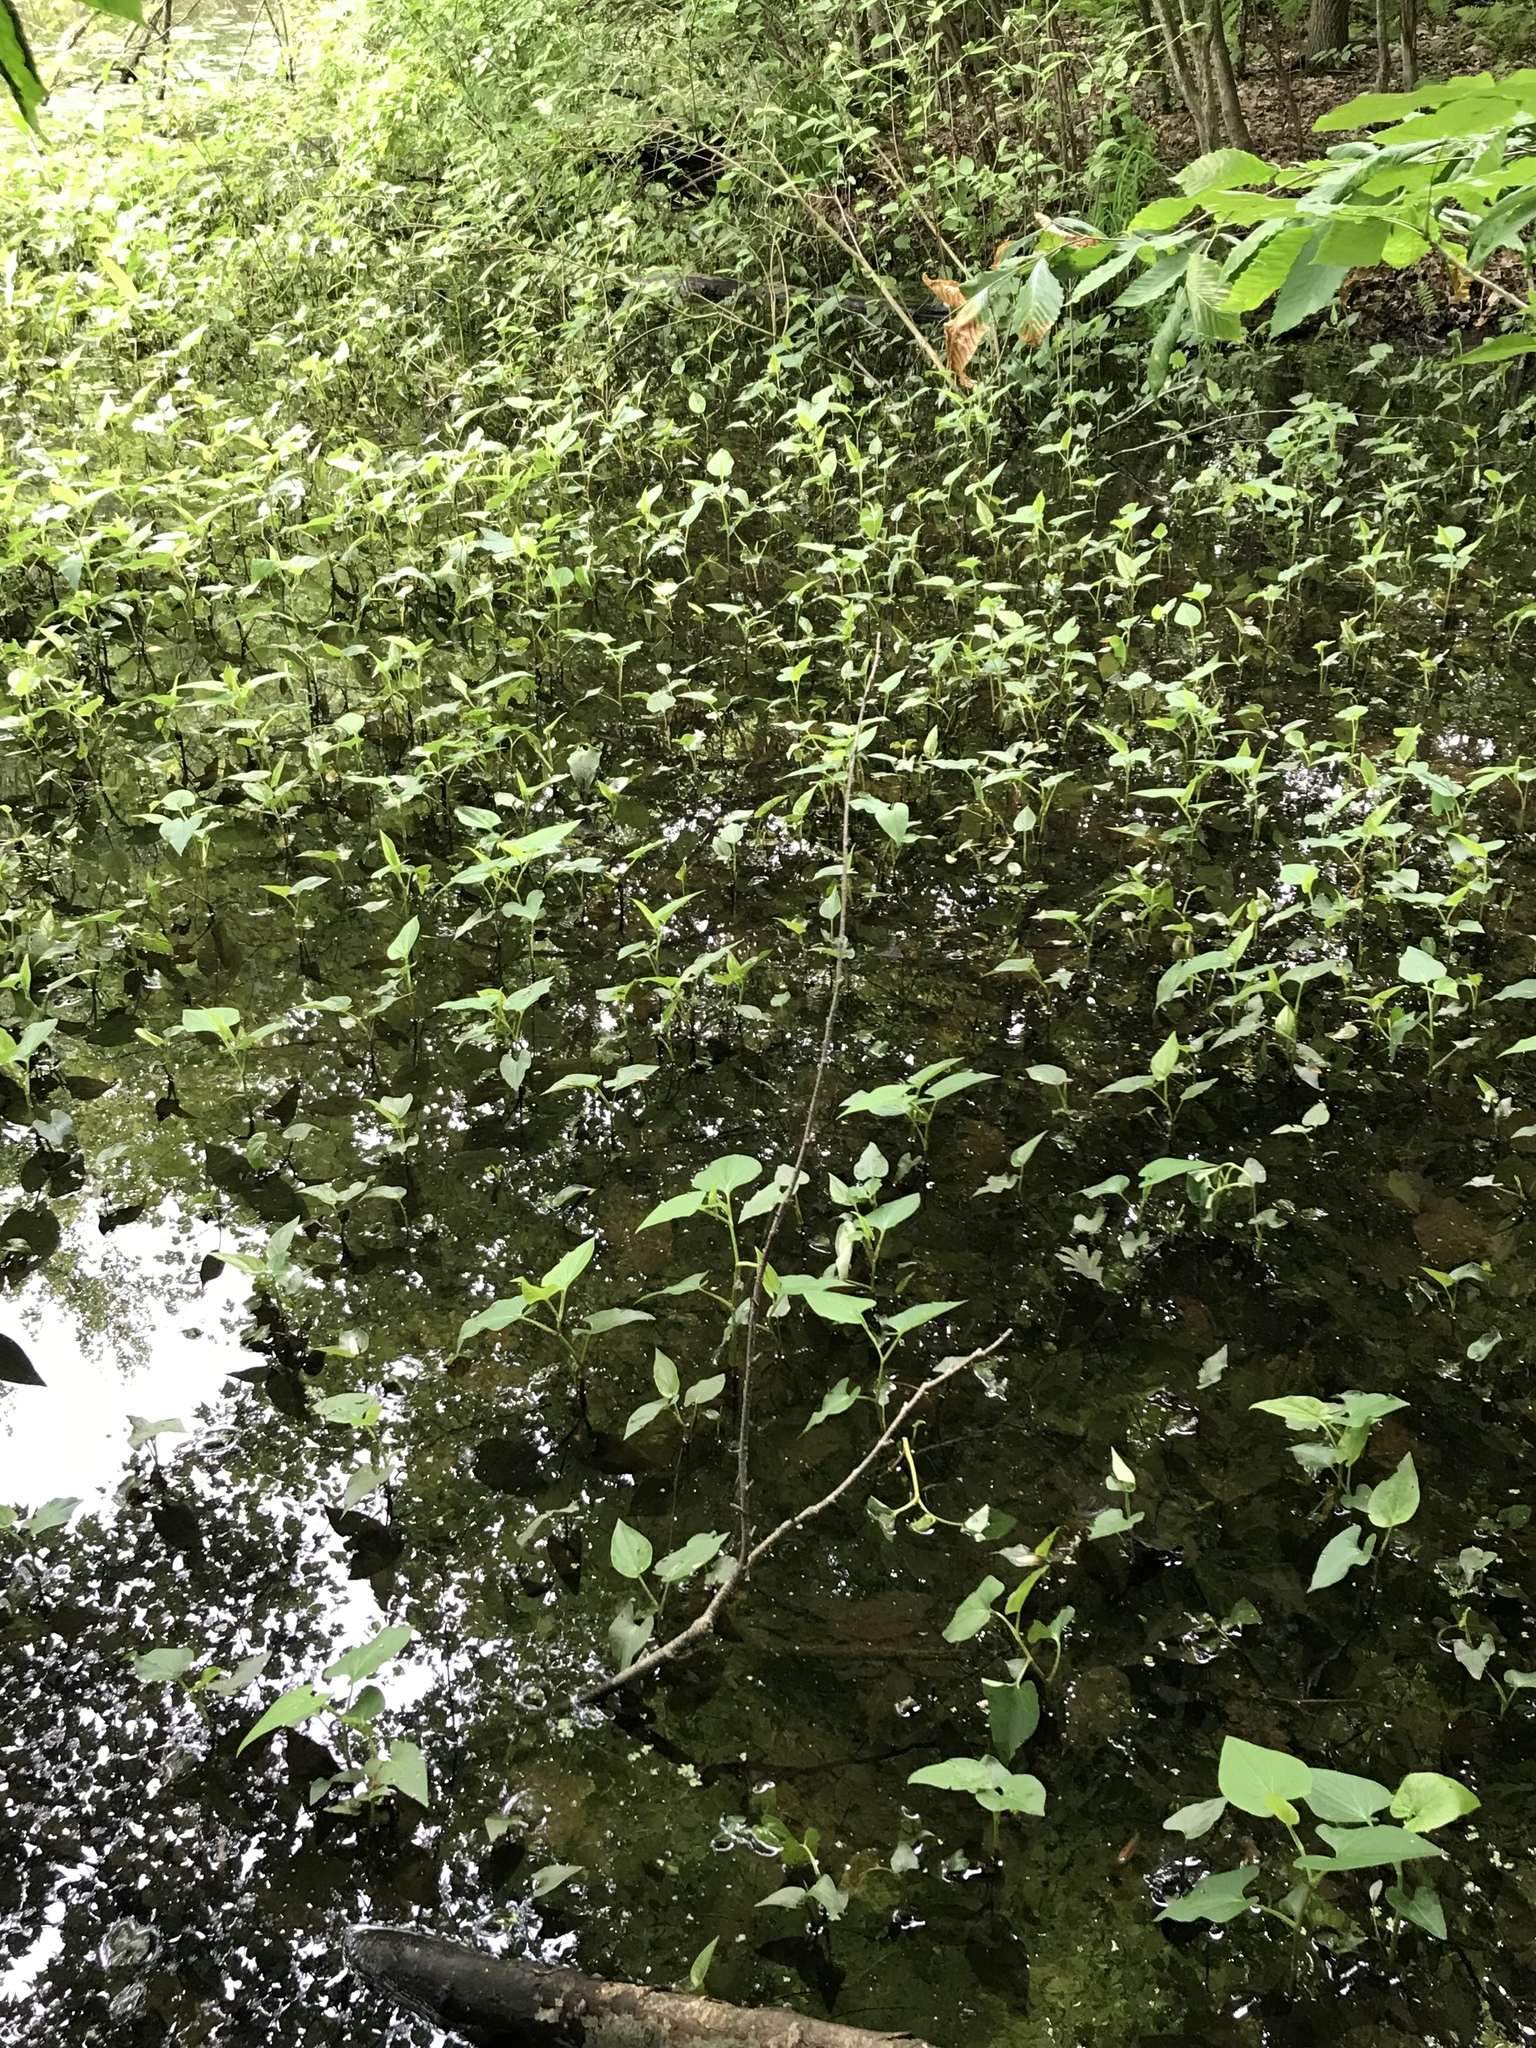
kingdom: Plantae
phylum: Tracheophyta
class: Magnoliopsida
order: Piperales
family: Saururaceae
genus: Saururus
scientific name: Saururus cernuus
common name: Lizard's-tail
